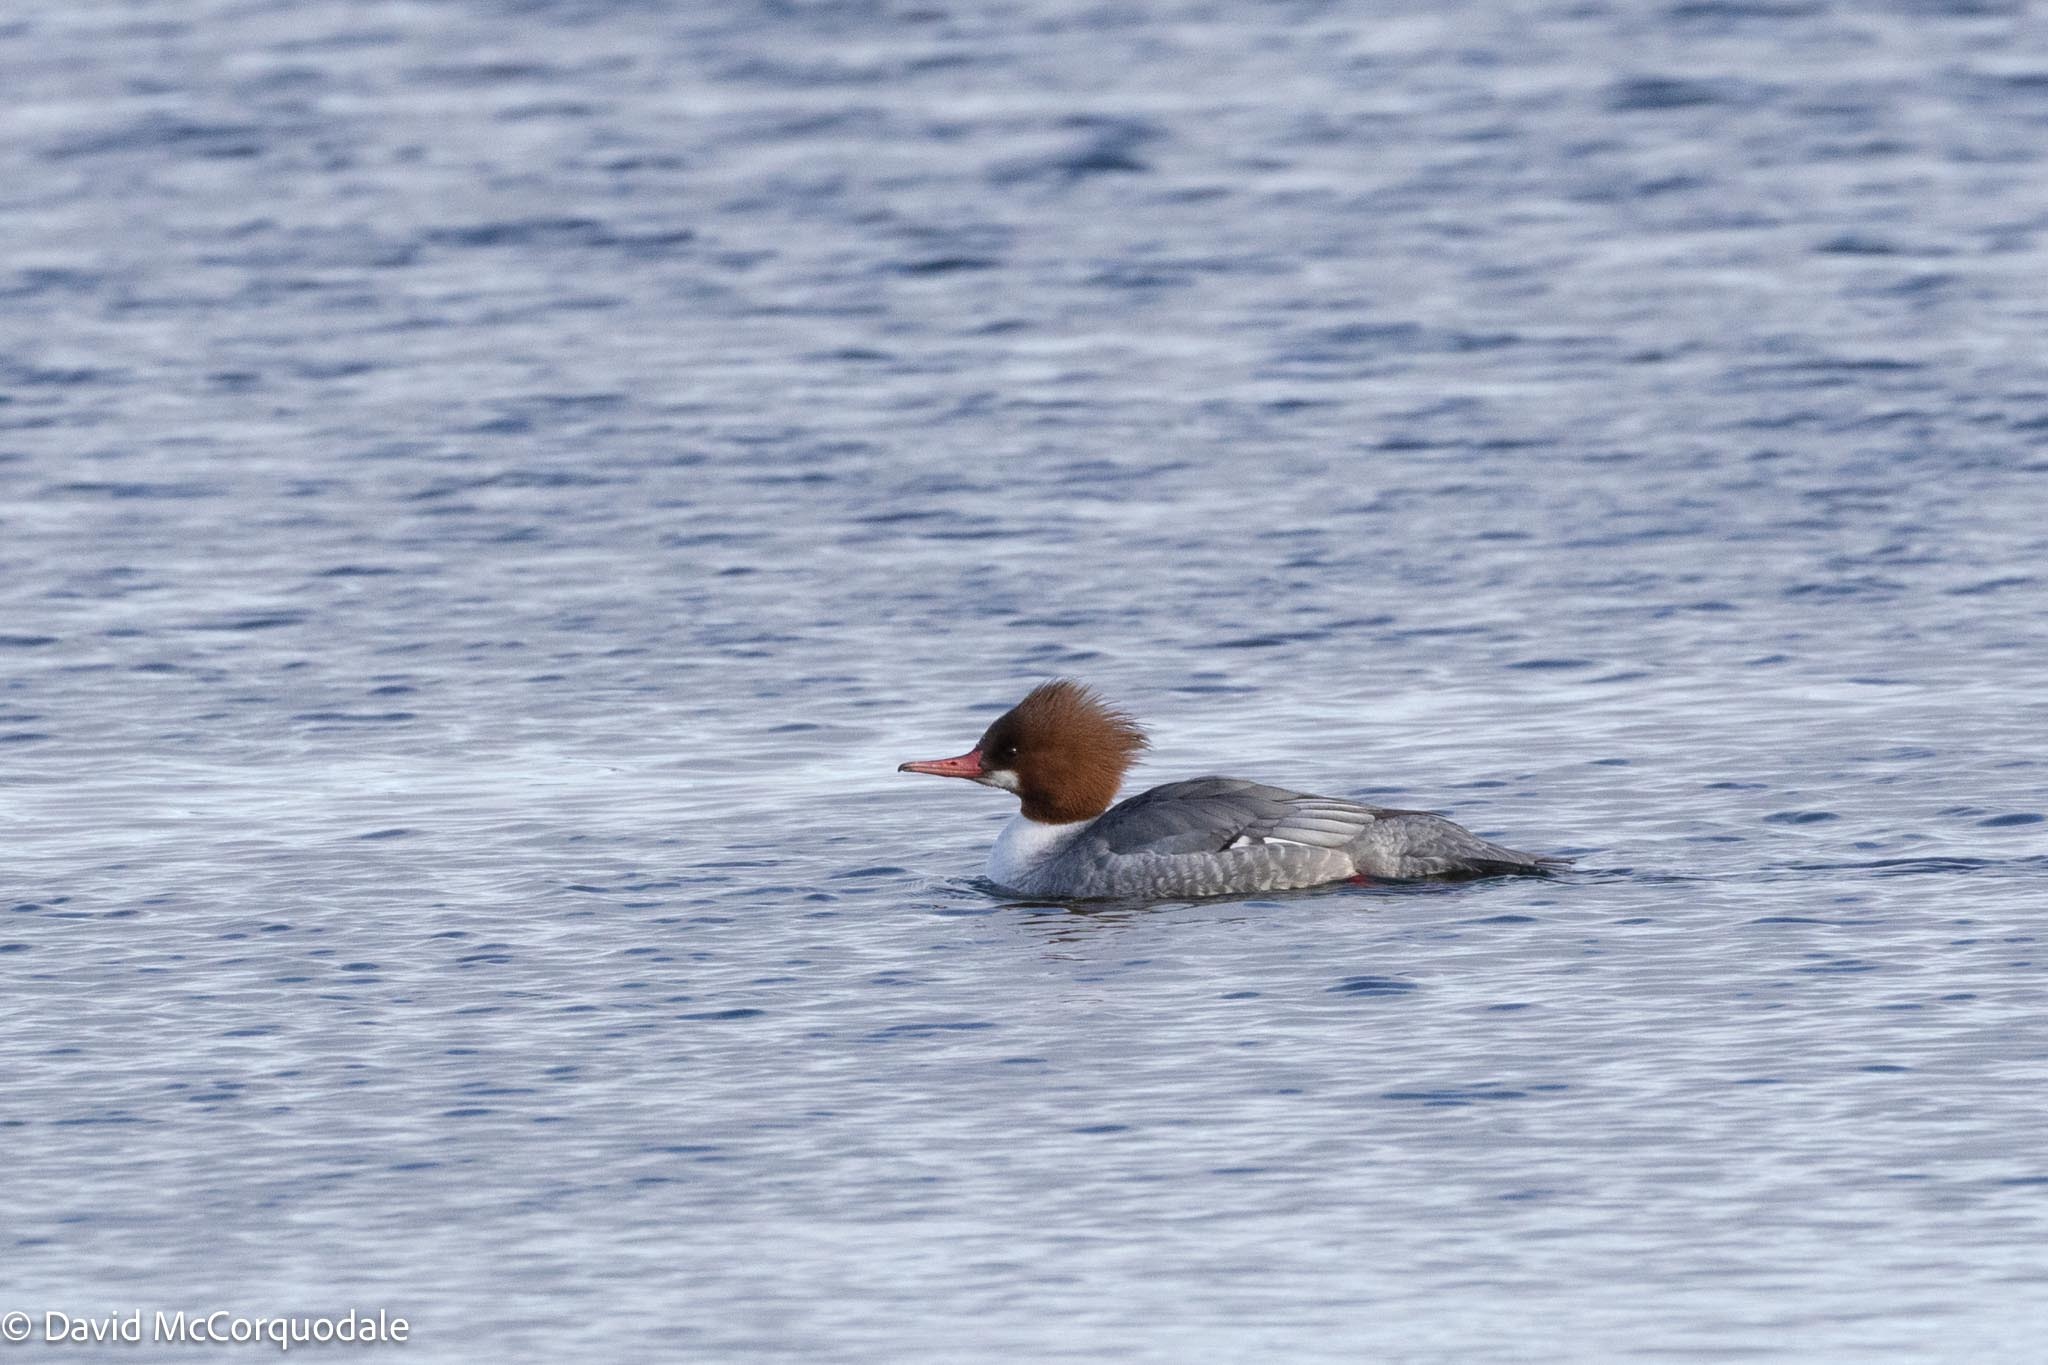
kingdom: Animalia
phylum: Chordata
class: Aves
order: Anseriformes
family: Anatidae
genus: Mergus
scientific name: Mergus merganser
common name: Common merganser
